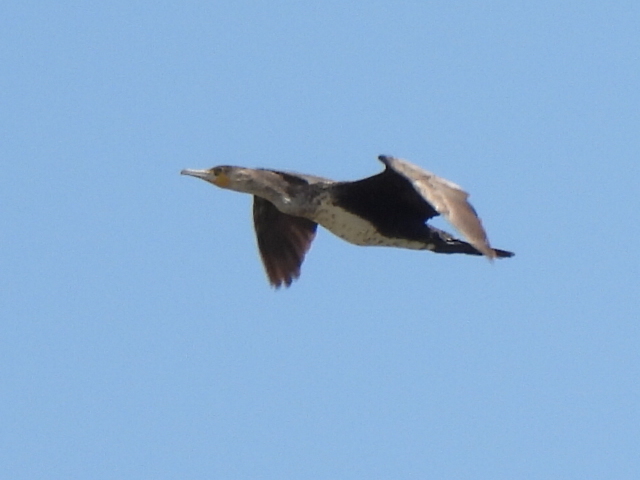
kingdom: Animalia
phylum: Chordata
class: Aves
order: Suliformes
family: Phalacrocoracidae
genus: Phalacrocorax
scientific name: Phalacrocorax carbo
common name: Great cormorant
